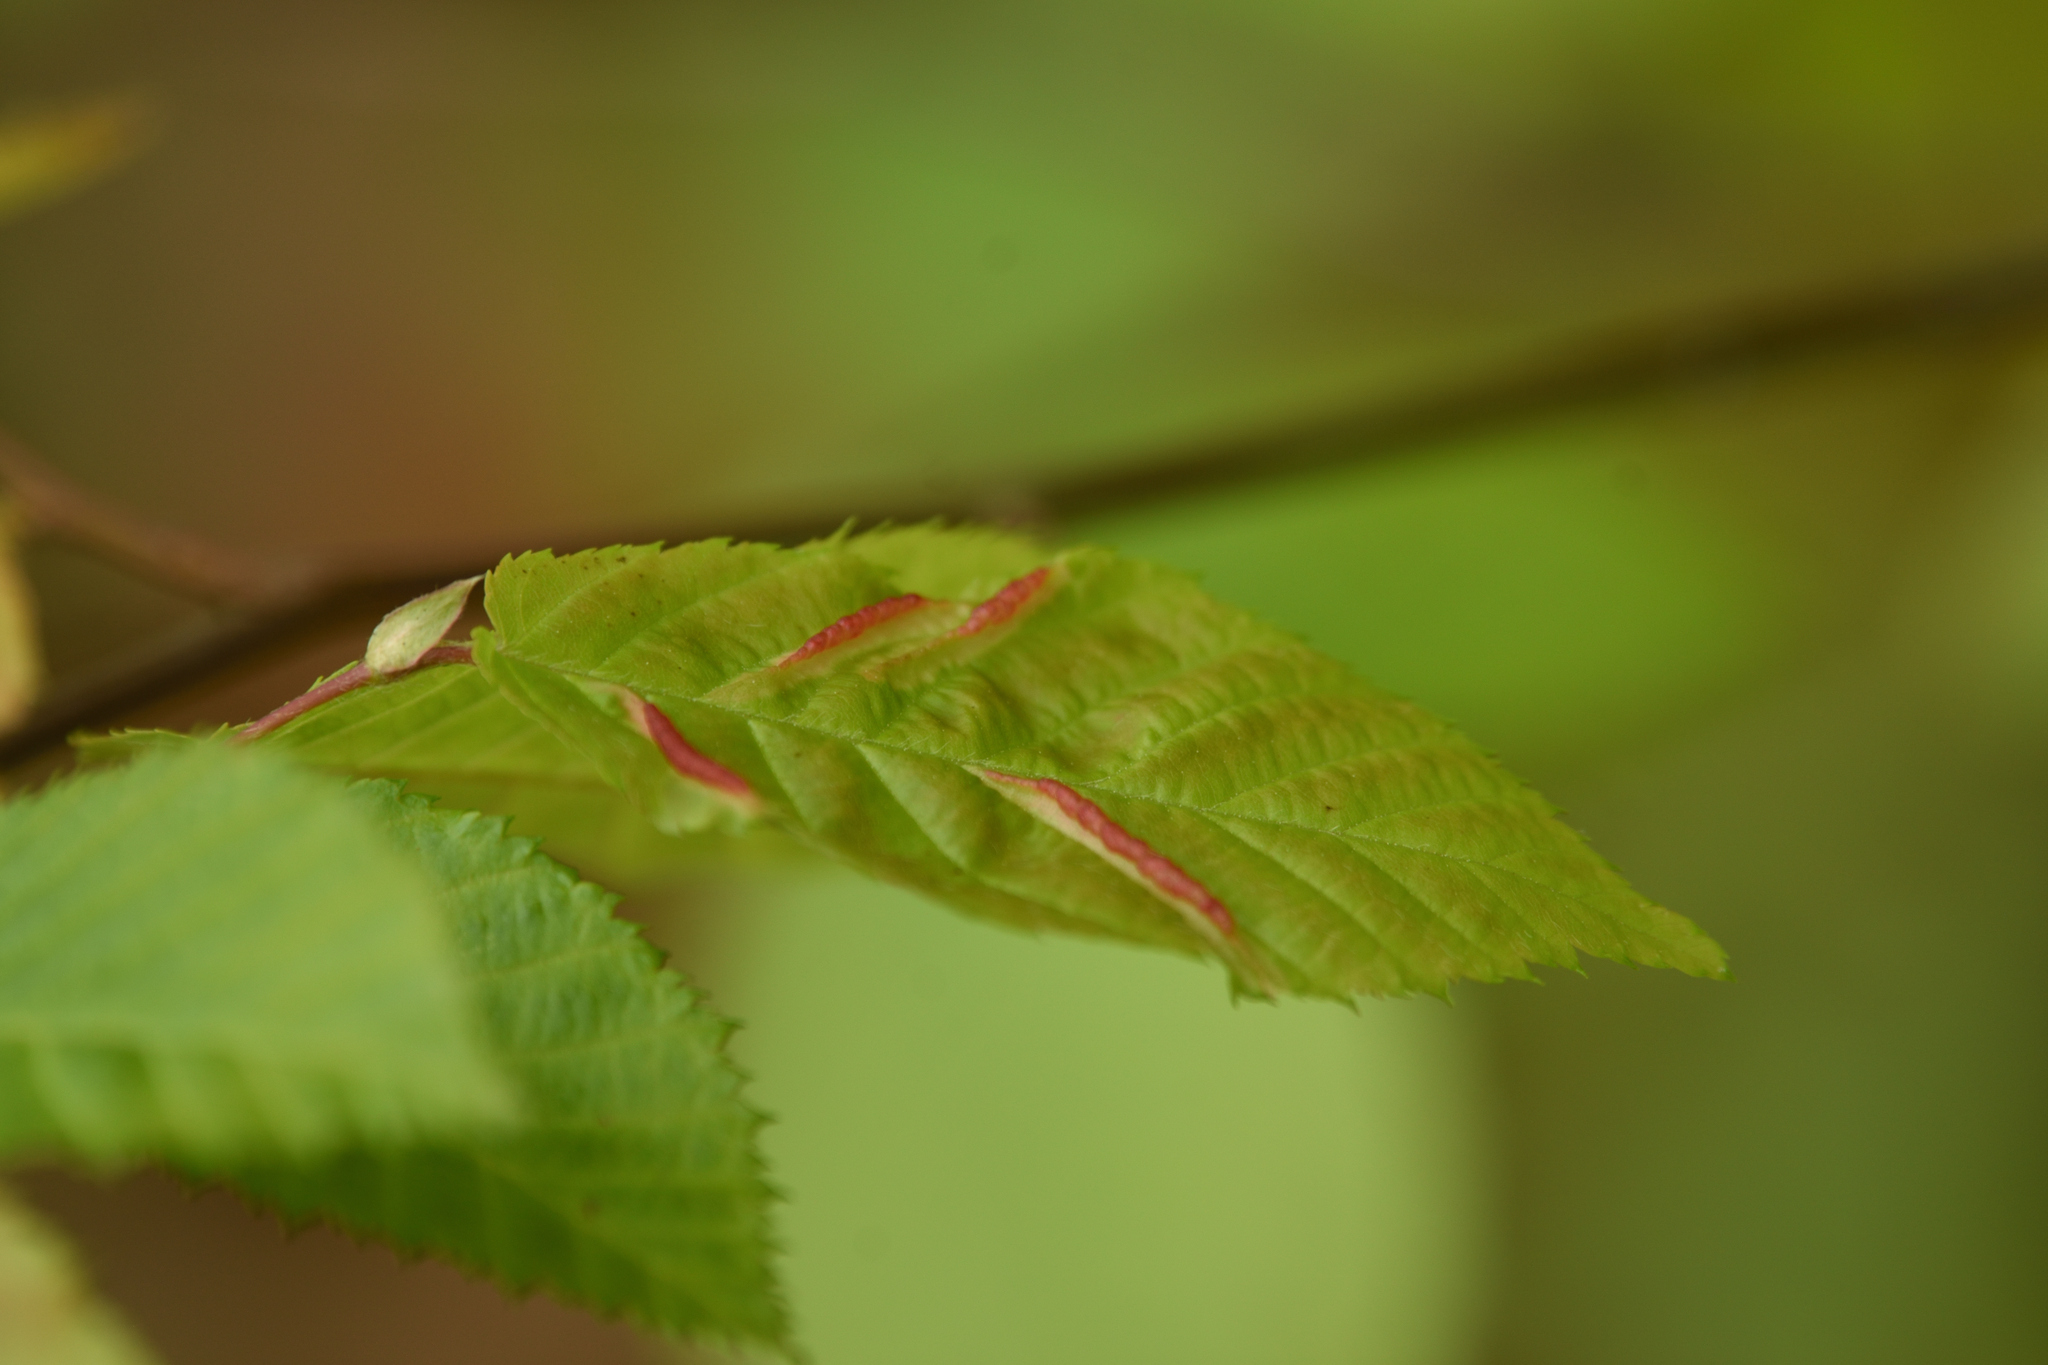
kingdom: Animalia
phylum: Arthropoda
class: Insecta
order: Diptera
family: Cecidomyiidae
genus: Dasineura
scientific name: Dasineura pudibunda
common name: Hornbeam leaf gall midge
